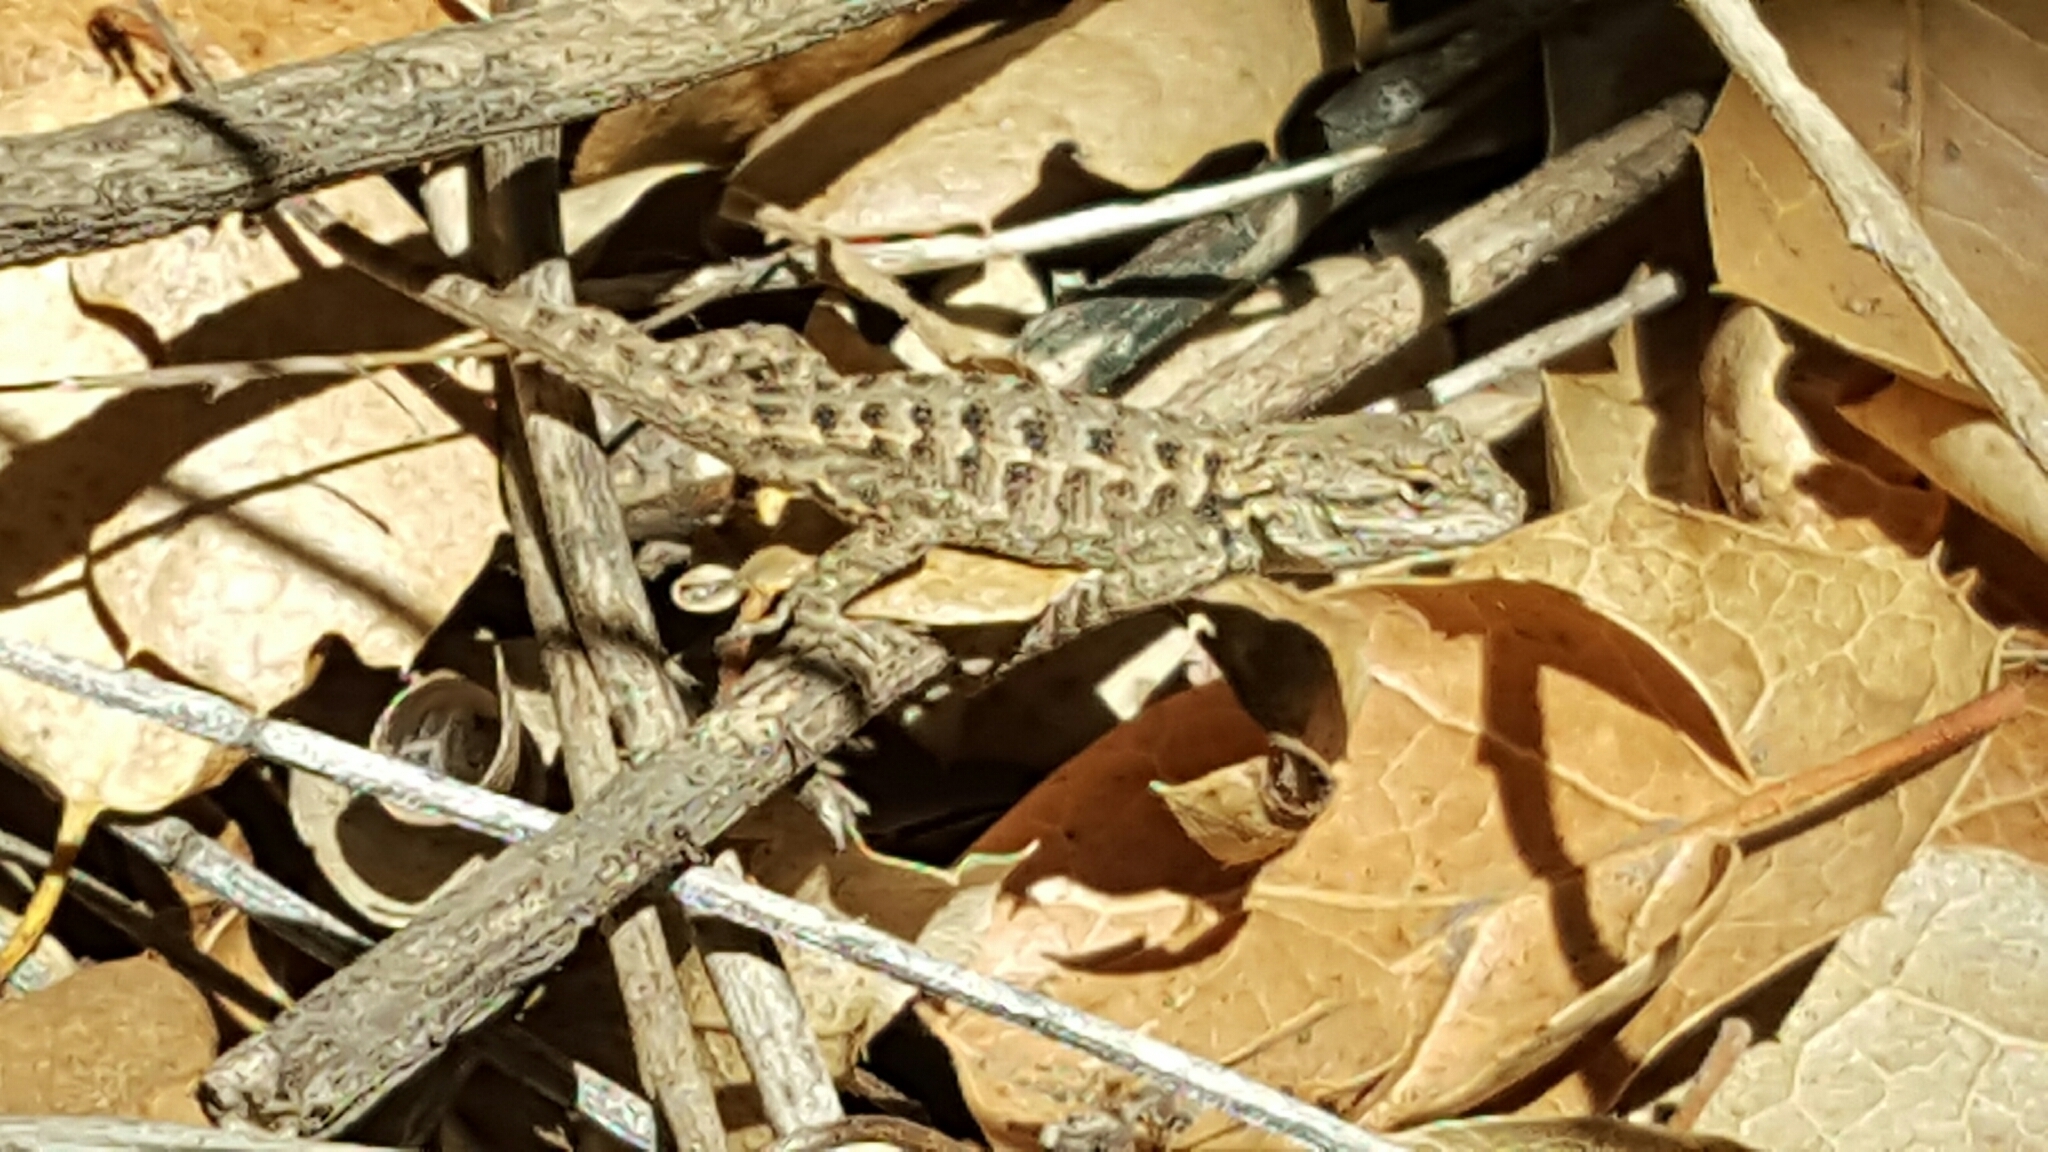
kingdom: Animalia
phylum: Chordata
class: Squamata
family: Phrynosomatidae
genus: Sceloporus
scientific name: Sceloporus occidentalis
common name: Western fence lizard
